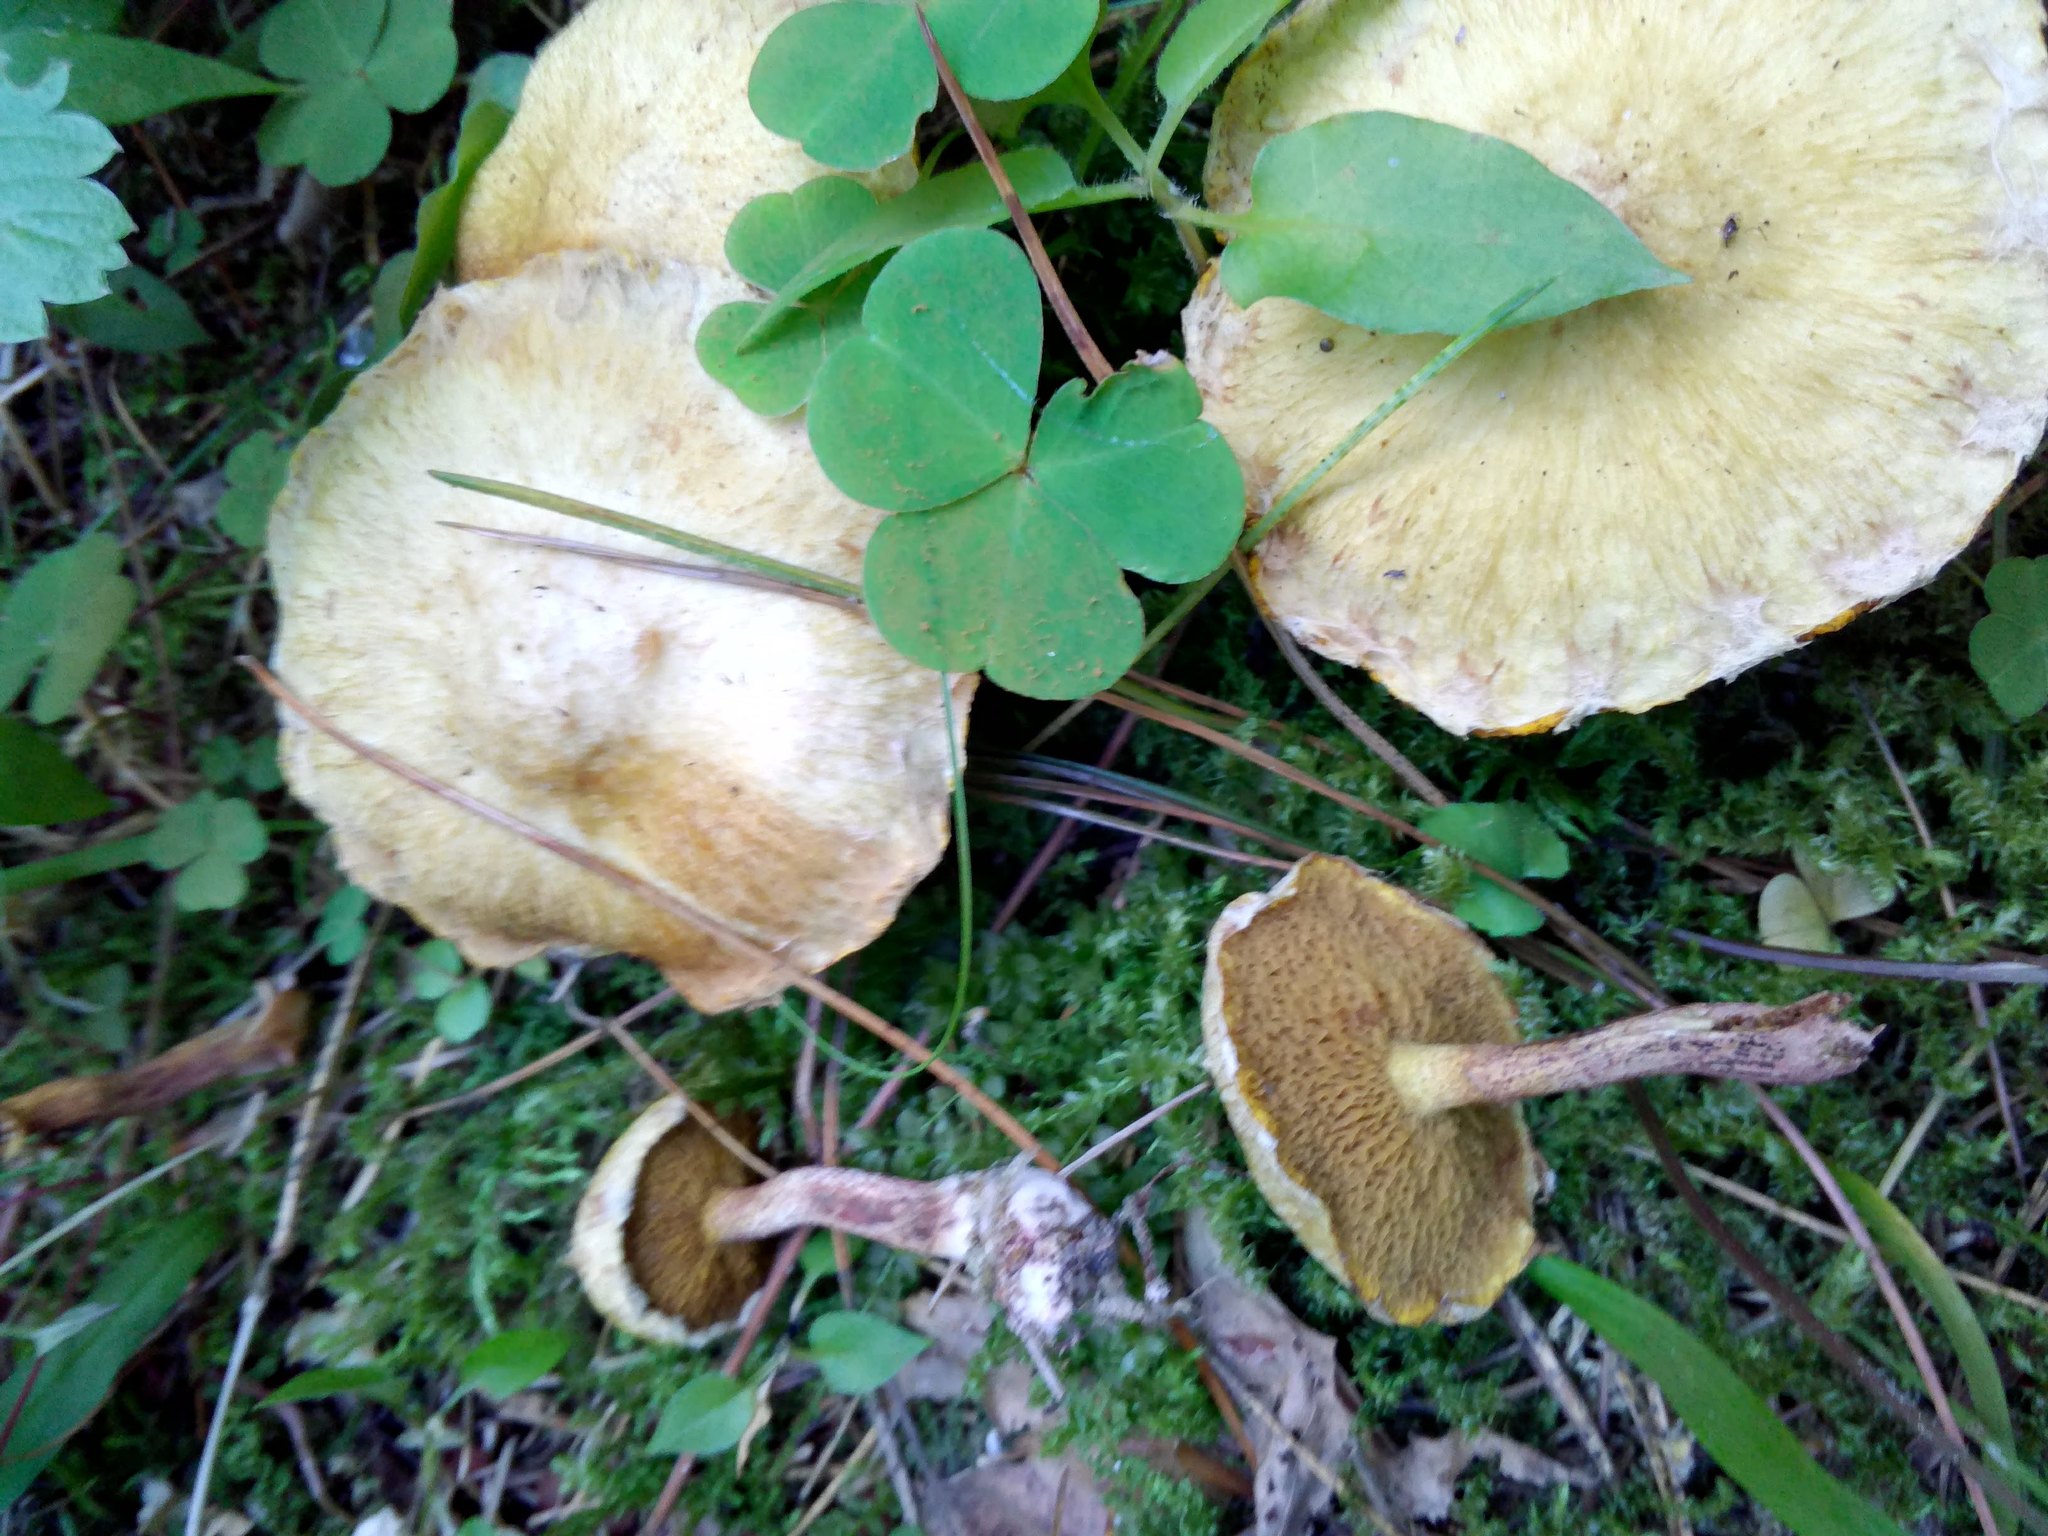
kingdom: Fungi
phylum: Basidiomycota
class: Agaricomycetes
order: Boletales
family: Suillaceae
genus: Suillus
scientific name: Suillus americanus
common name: Chicken fat mushroom
